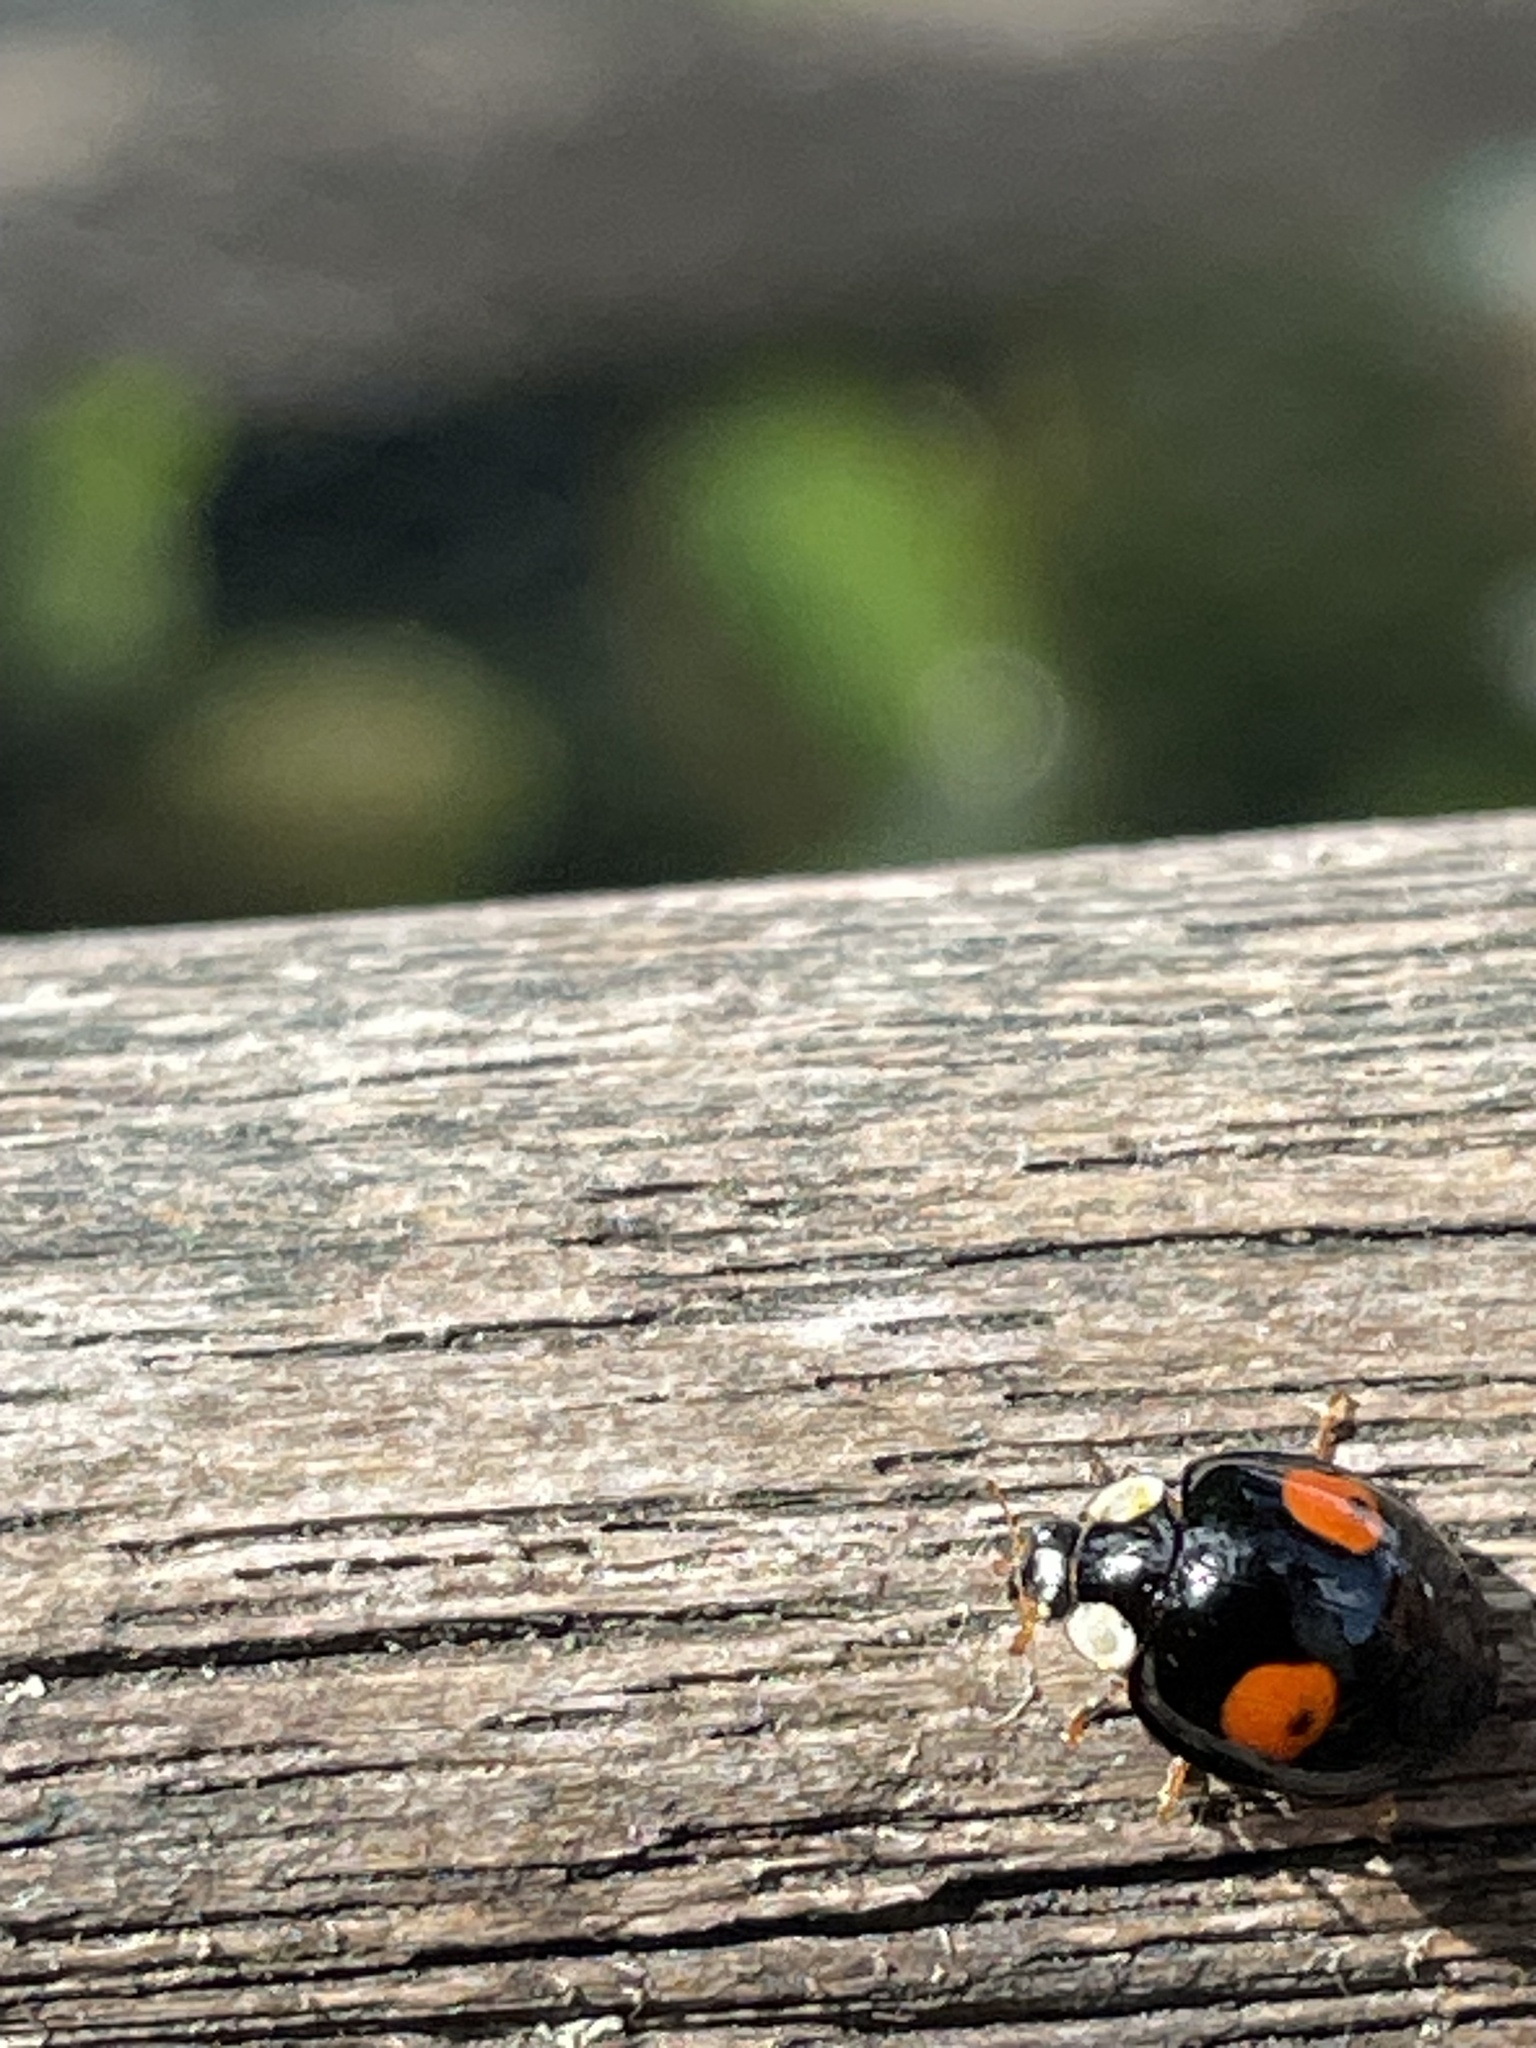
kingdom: Animalia
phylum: Arthropoda
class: Insecta
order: Coleoptera
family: Coccinellidae
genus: Harmonia
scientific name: Harmonia axyridis
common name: Harlequin ladybird
